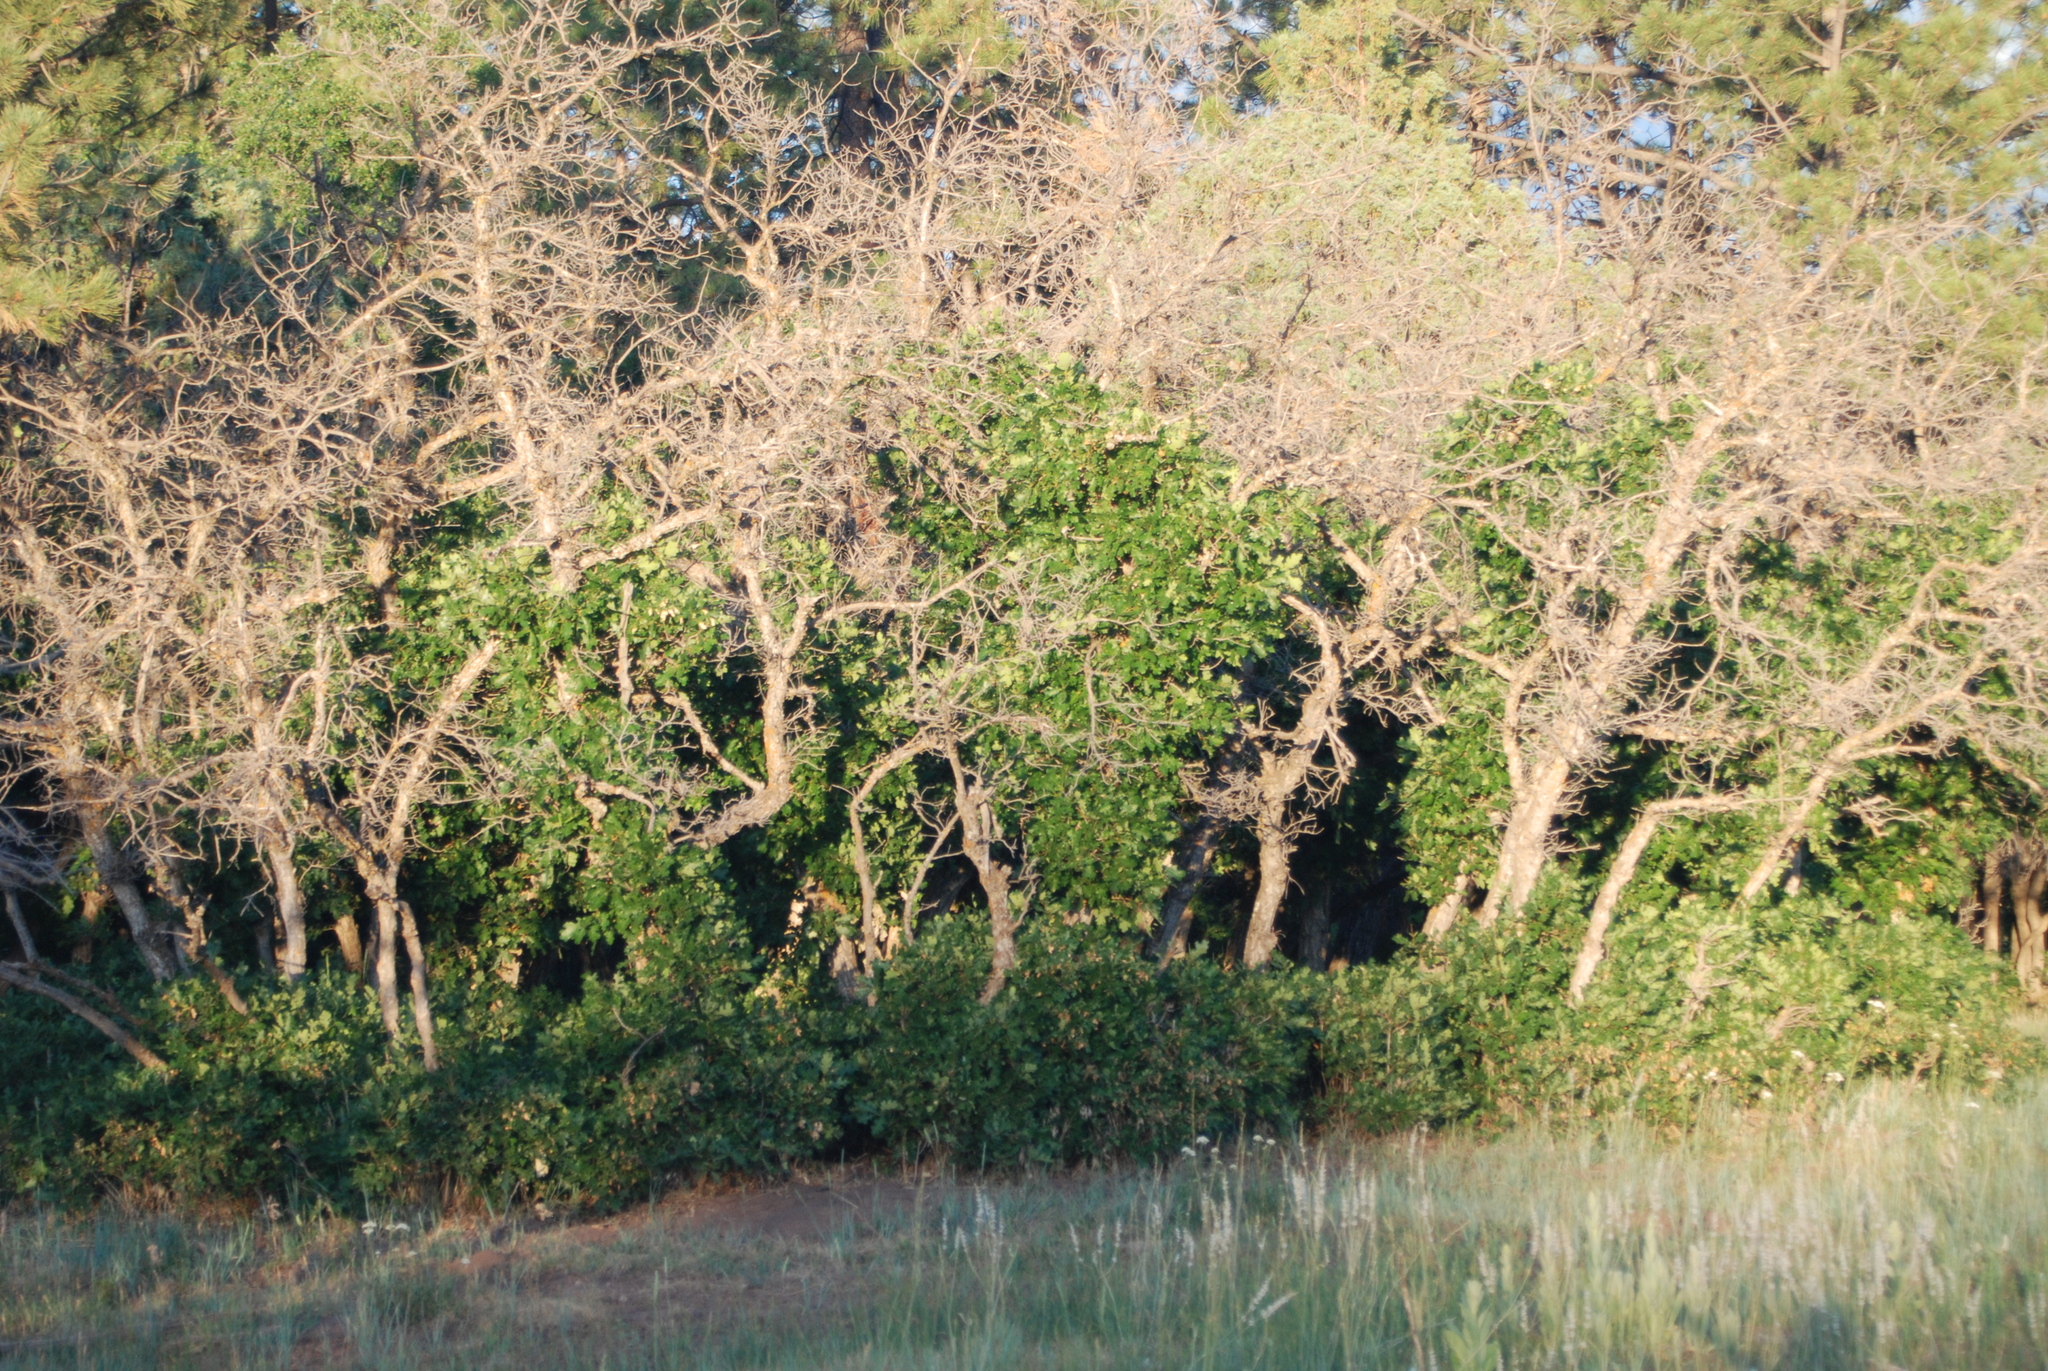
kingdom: Plantae
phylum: Tracheophyta
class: Magnoliopsida
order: Fagales
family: Fagaceae
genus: Quercus
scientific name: Quercus gambelii
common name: Gambel oak
